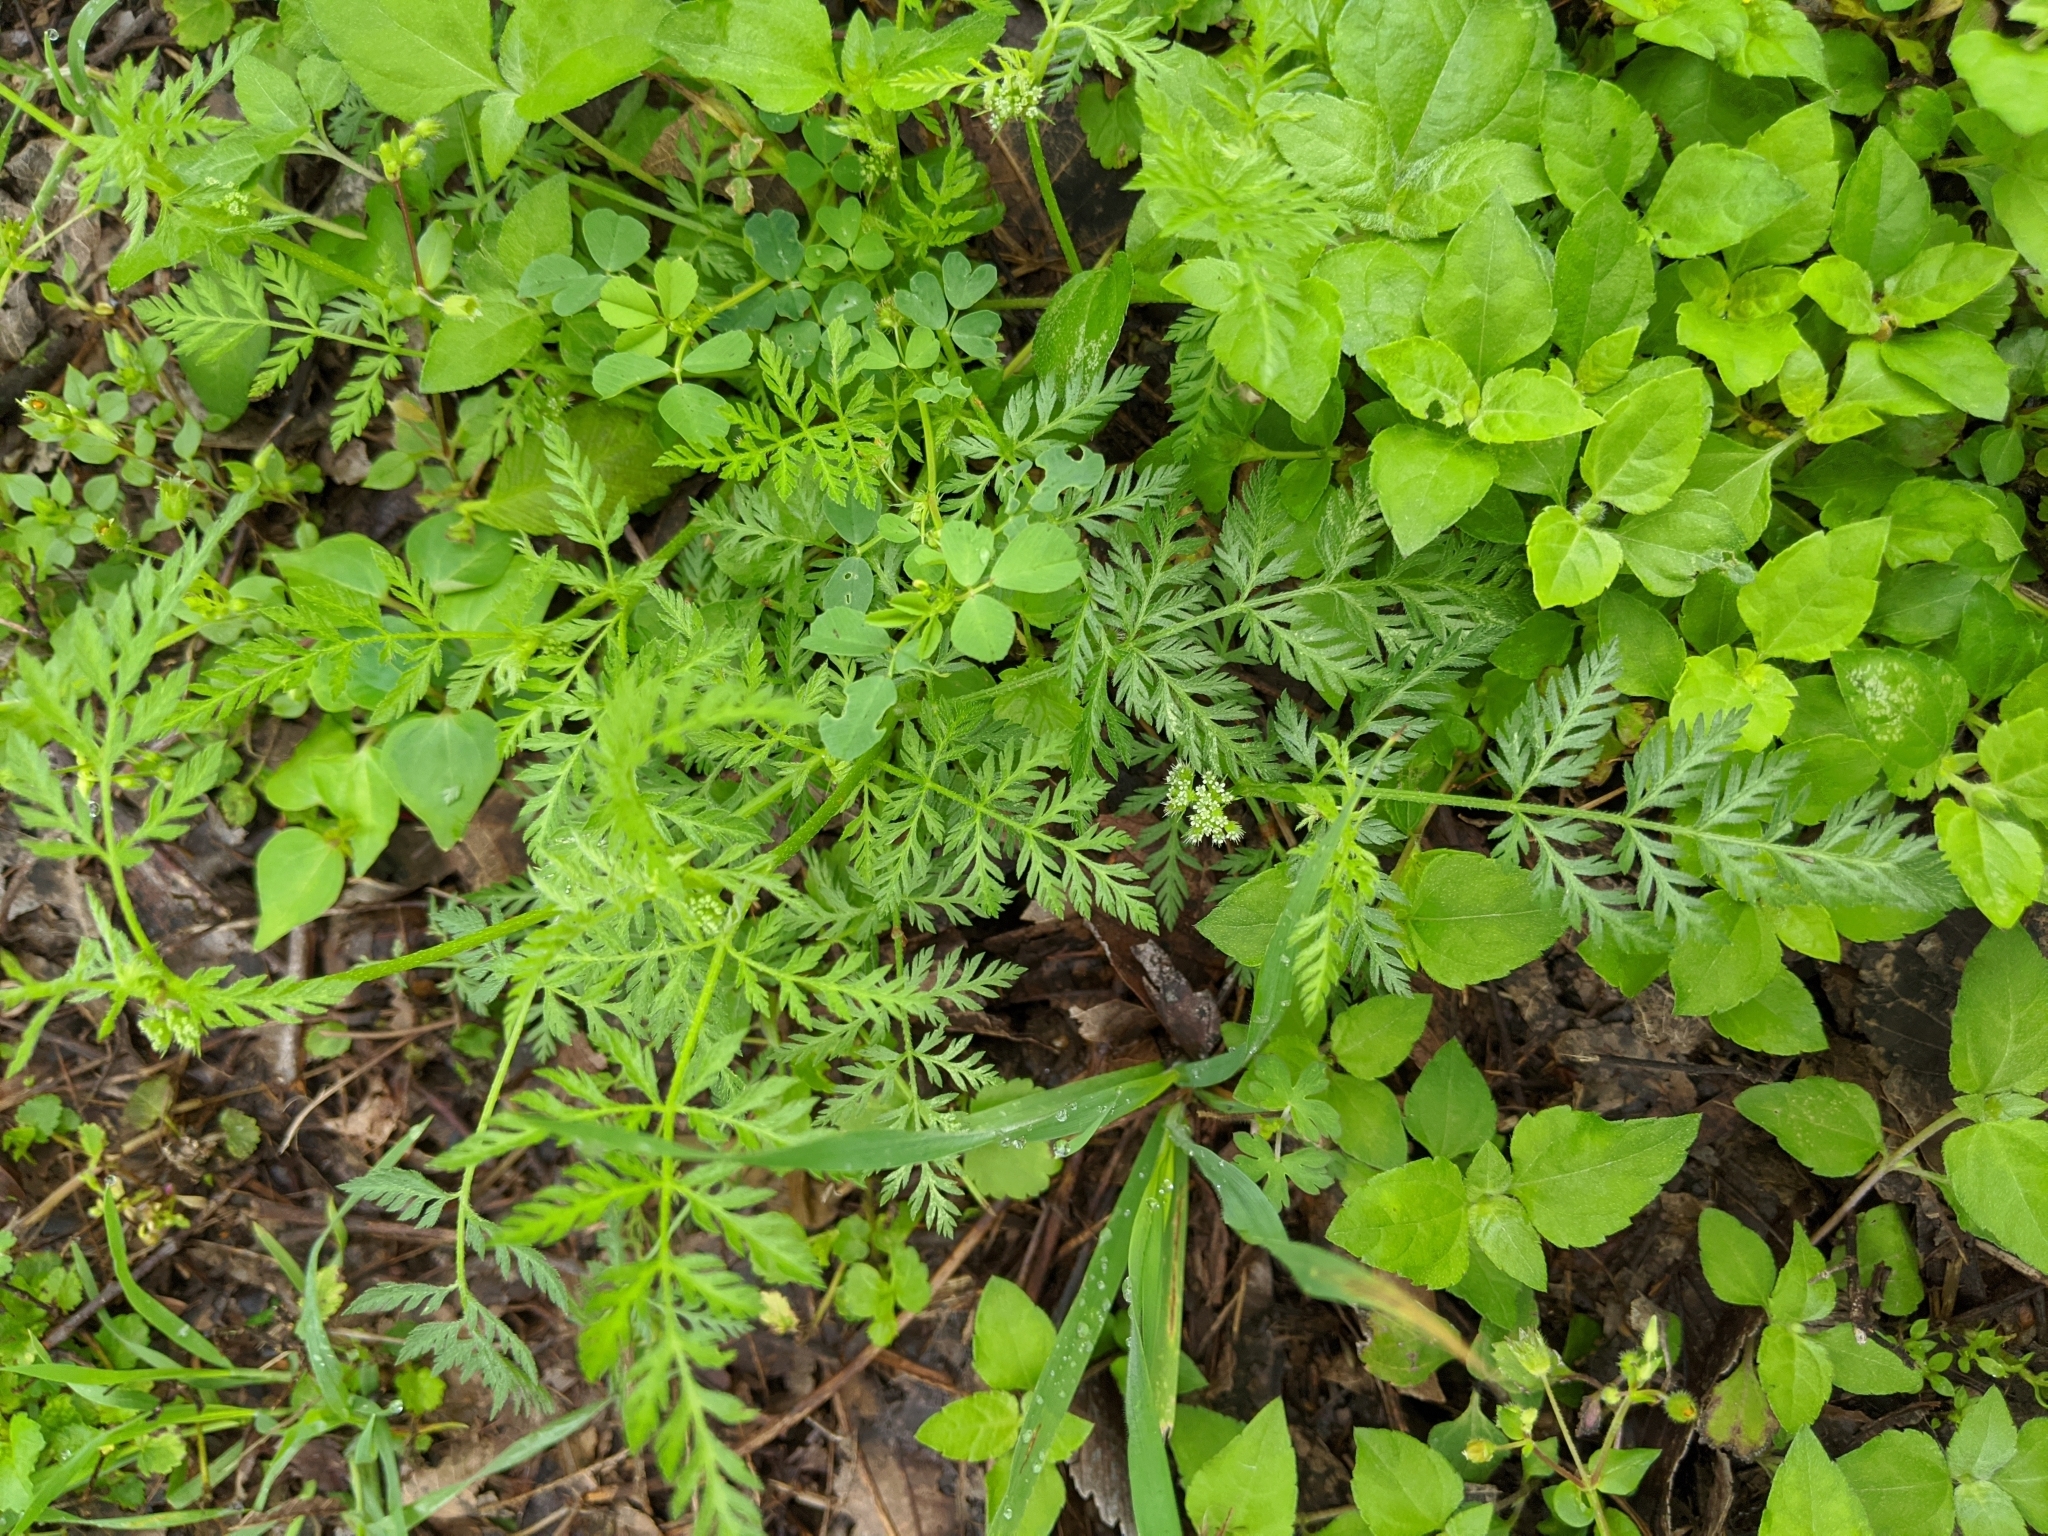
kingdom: Plantae
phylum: Tracheophyta
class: Magnoliopsida
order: Apiales
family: Apiaceae
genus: Torilis
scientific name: Torilis nodosa
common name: Knotted hedge-parsley
